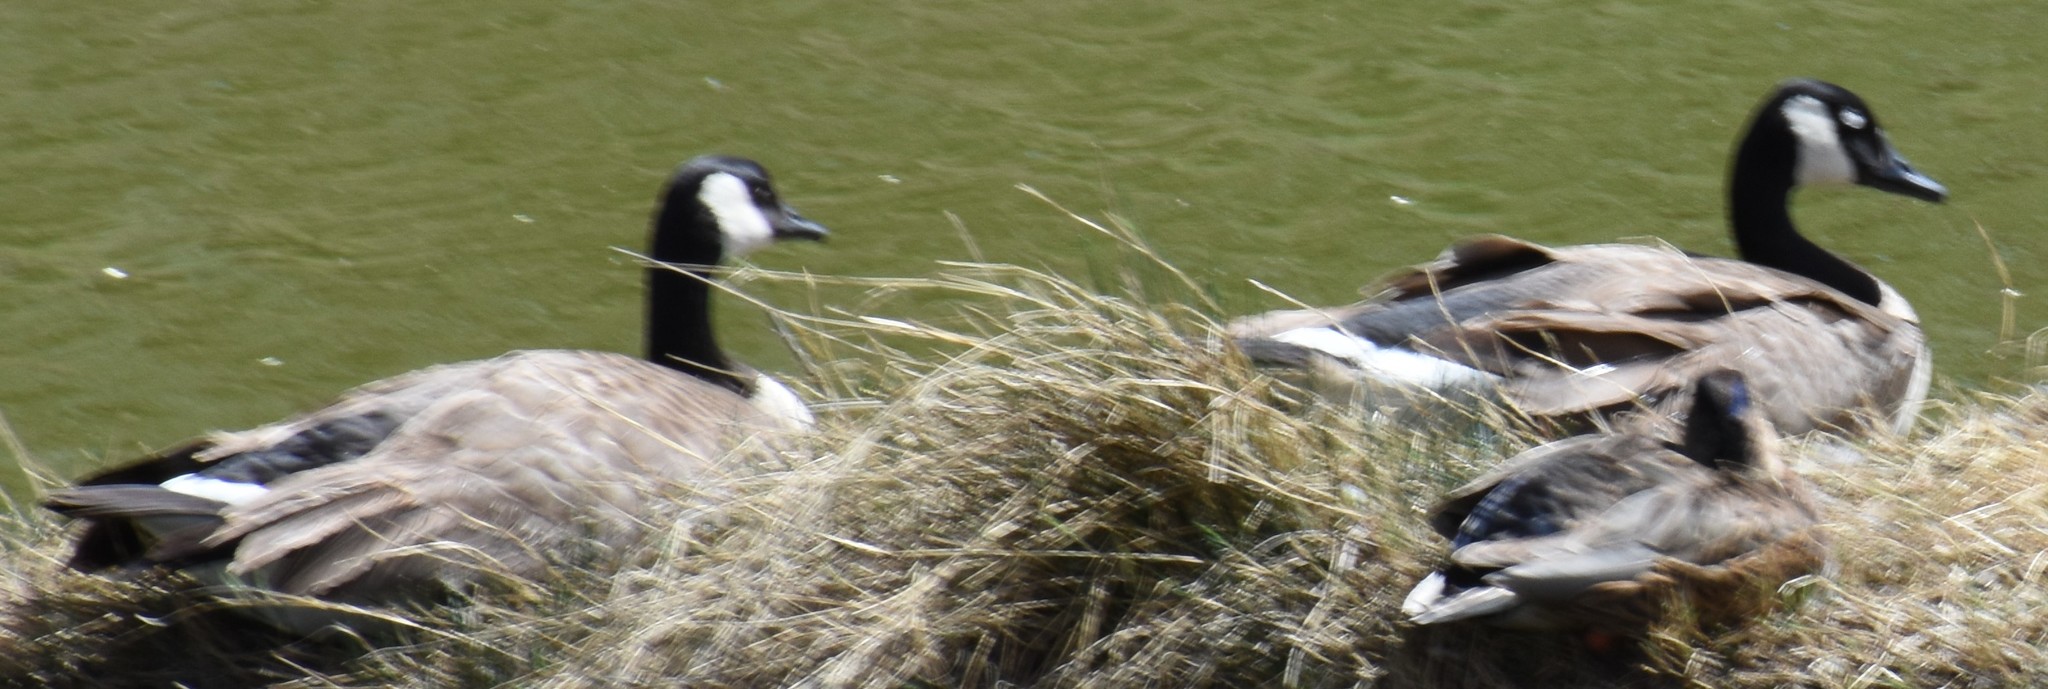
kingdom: Animalia
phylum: Chordata
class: Aves
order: Anseriformes
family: Anatidae
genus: Branta
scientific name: Branta canadensis
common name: Canada goose
